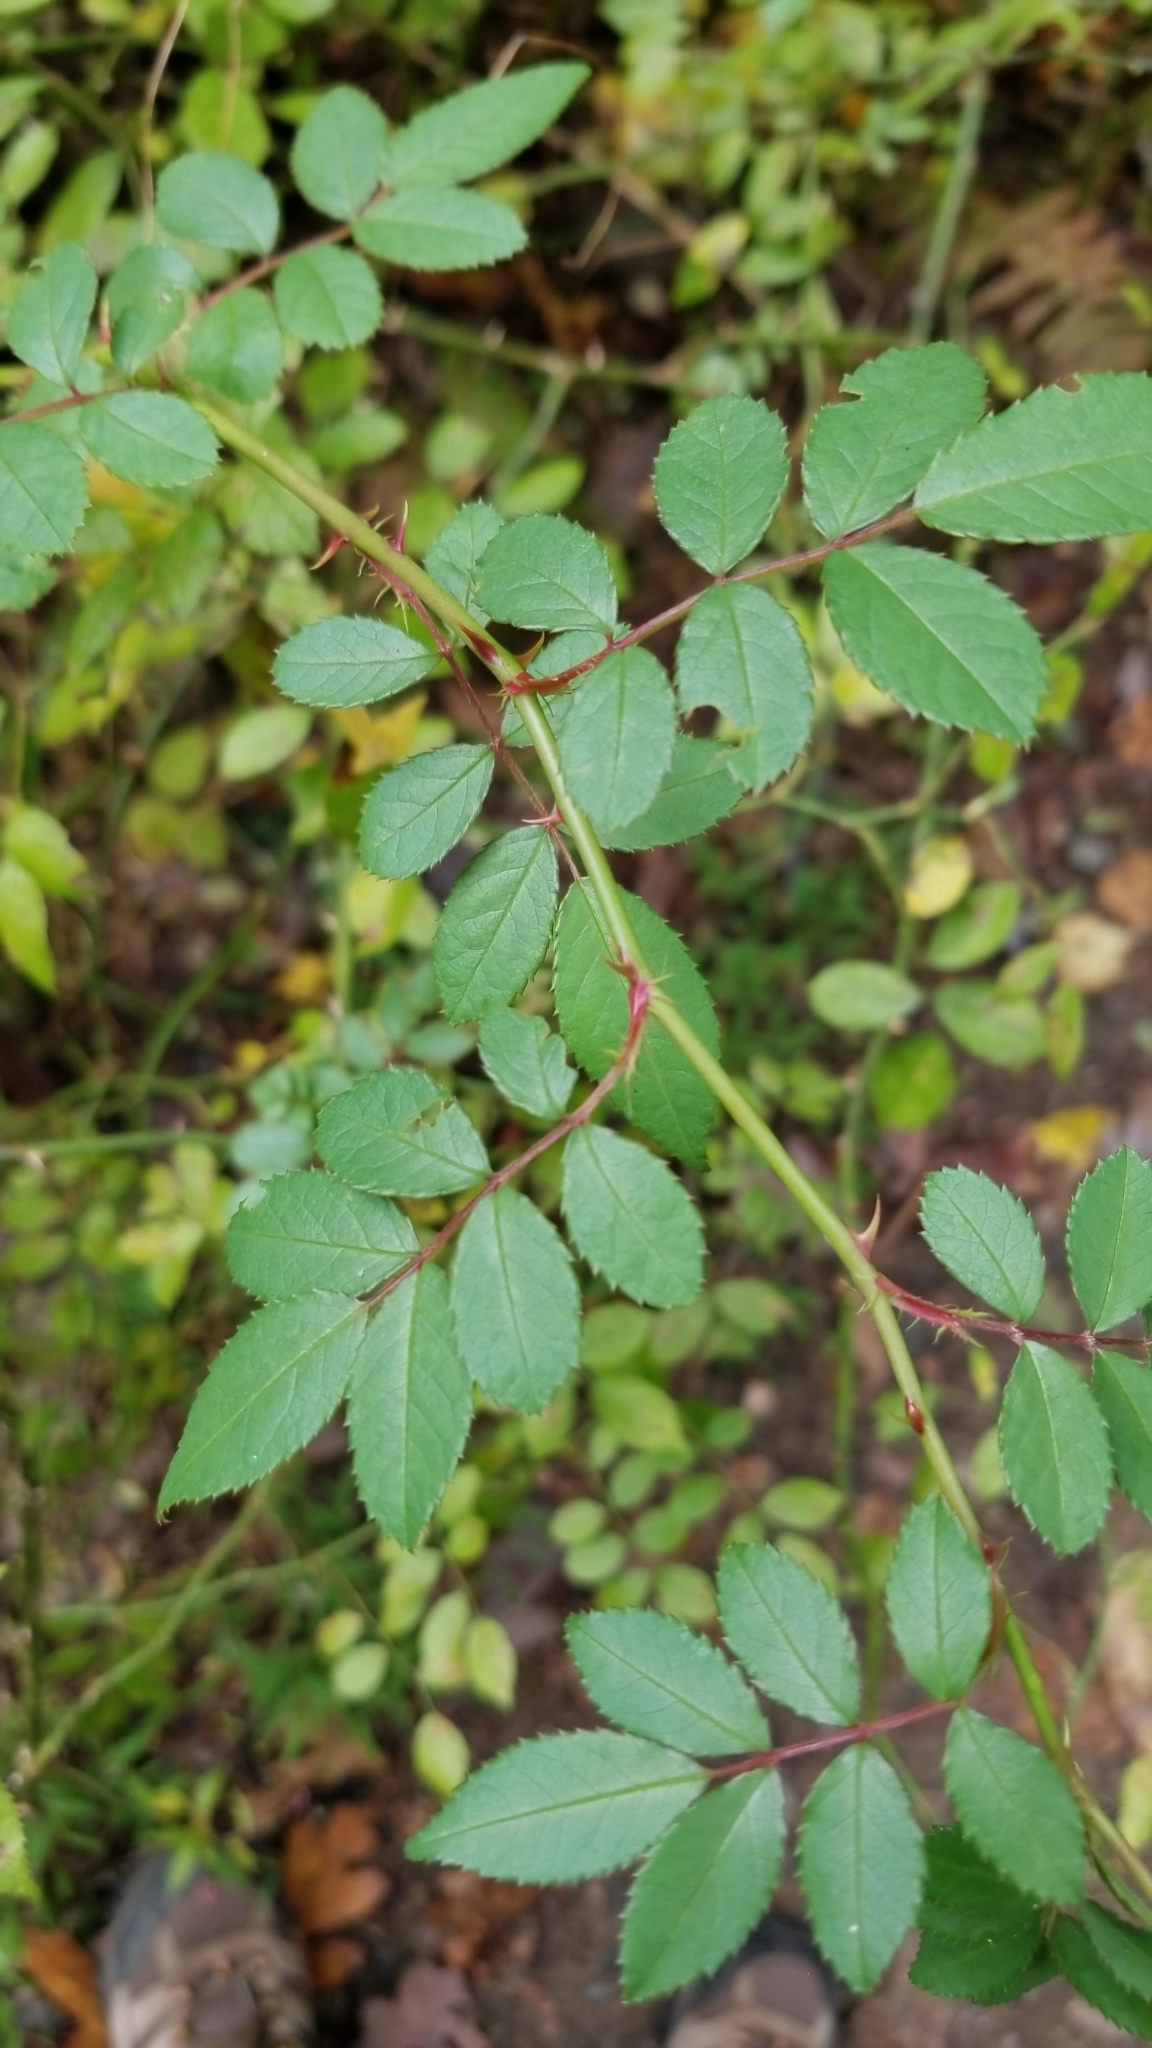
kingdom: Plantae
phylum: Tracheophyta
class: Magnoliopsida
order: Rosales
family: Rosaceae
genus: Rosa
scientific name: Rosa multiflora
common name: Multiflora rose
